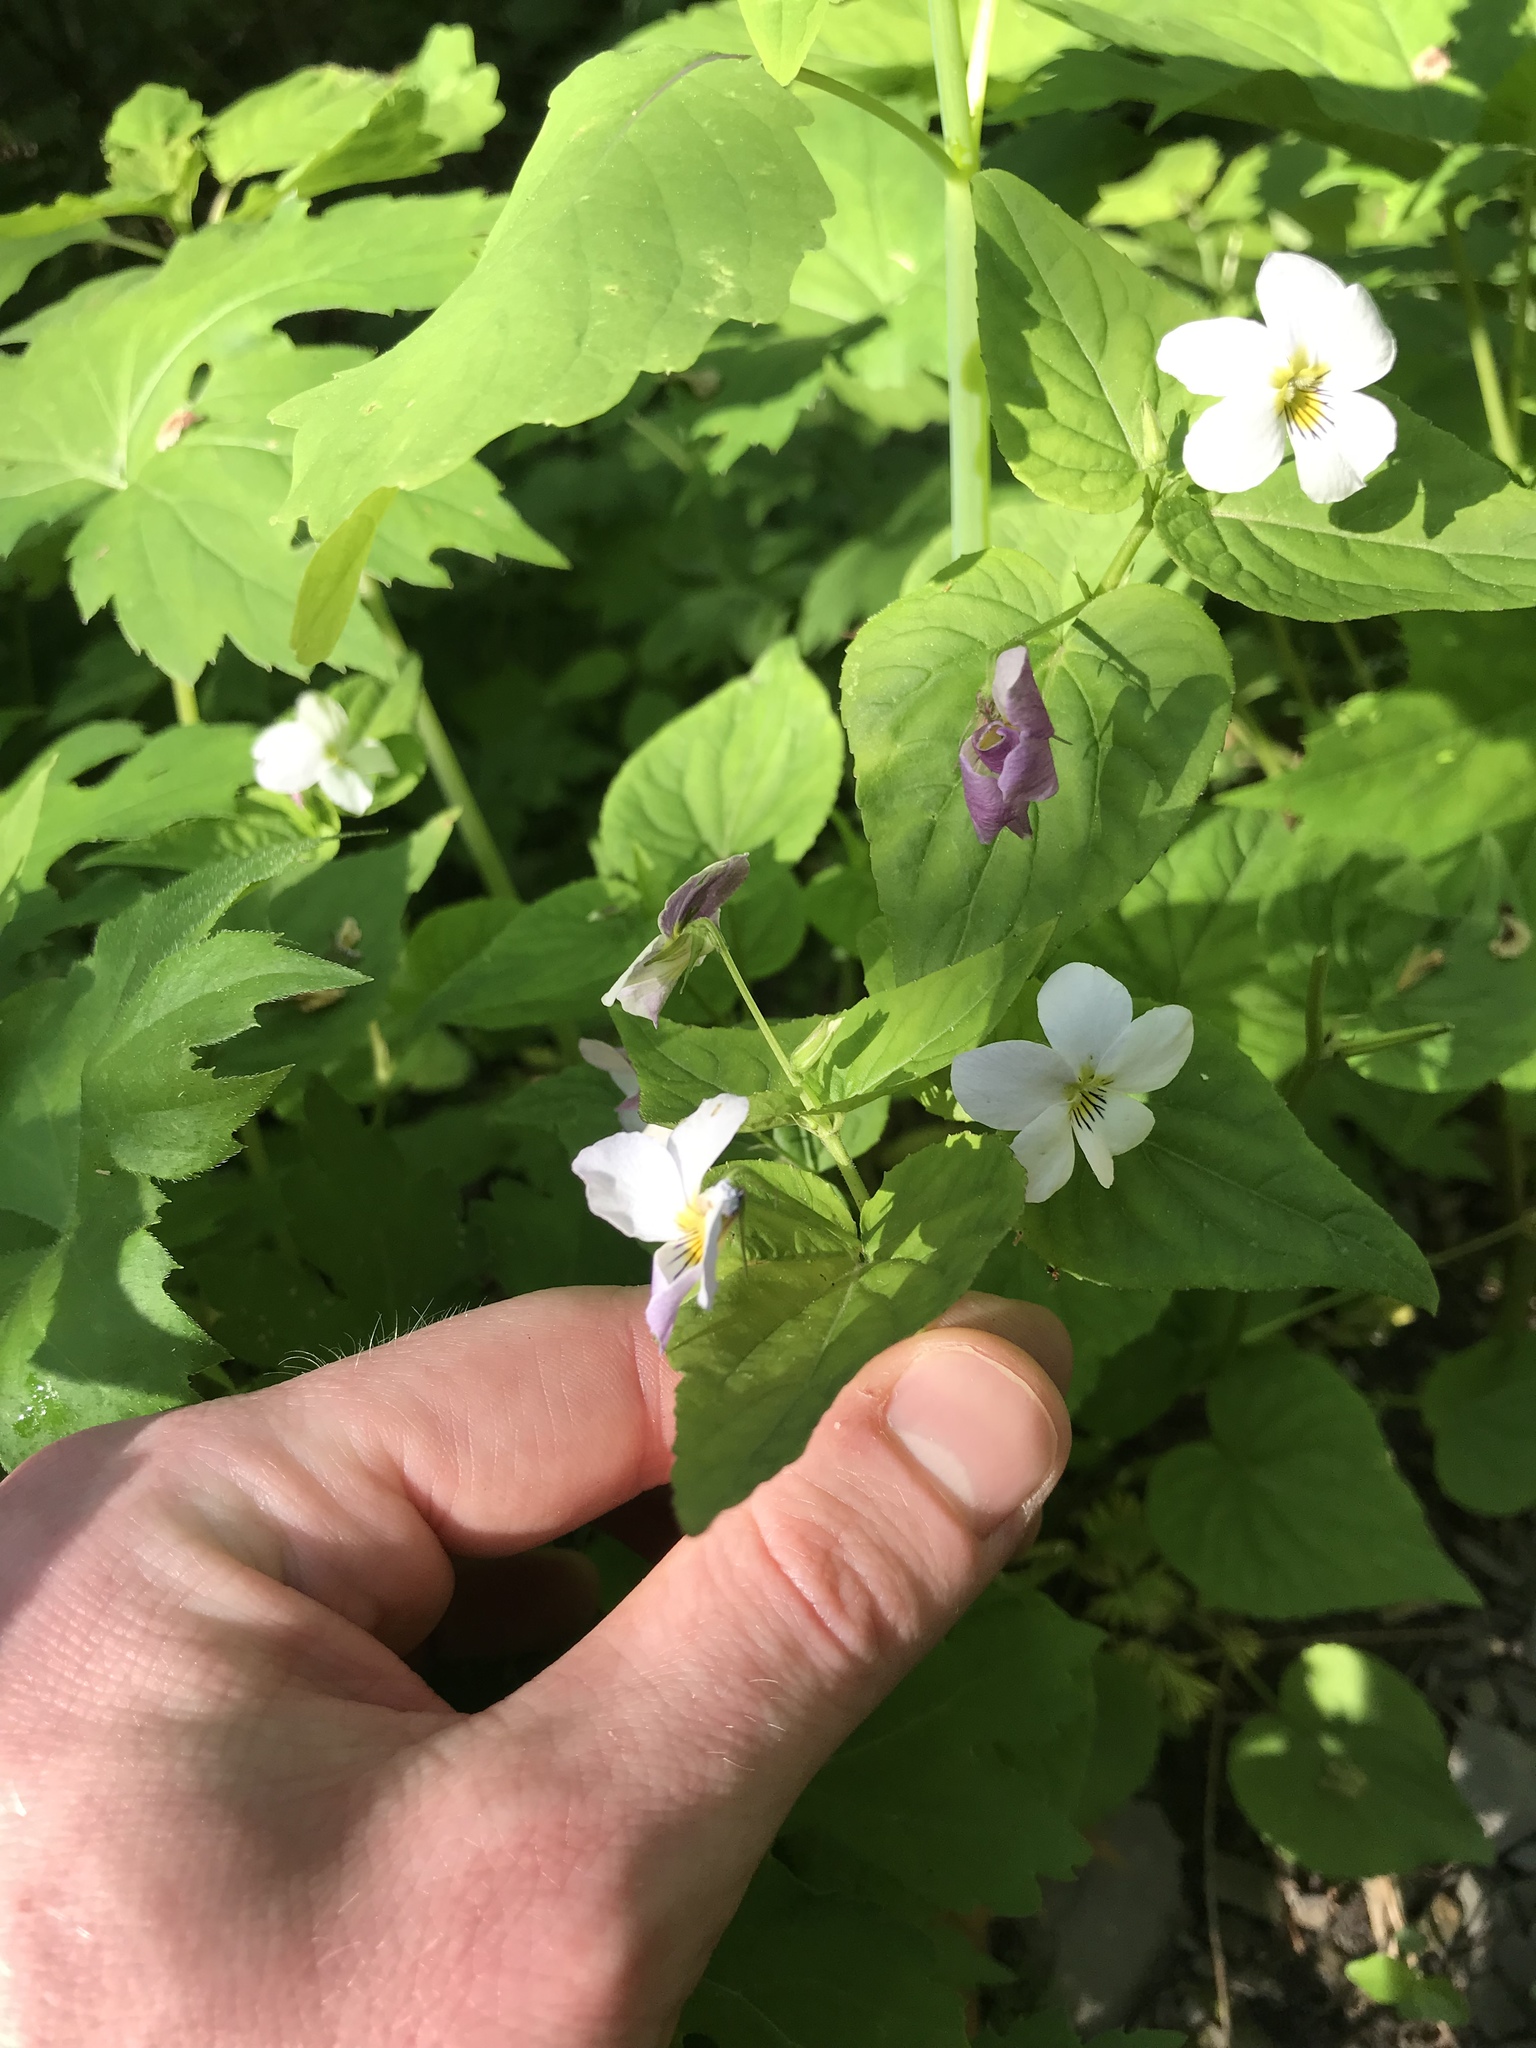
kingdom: Plantae
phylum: Tracheophyta
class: Magnoliopsida
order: Malpighiales
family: Violaceae
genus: Viola
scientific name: Viola canadensis
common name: Canada violet
